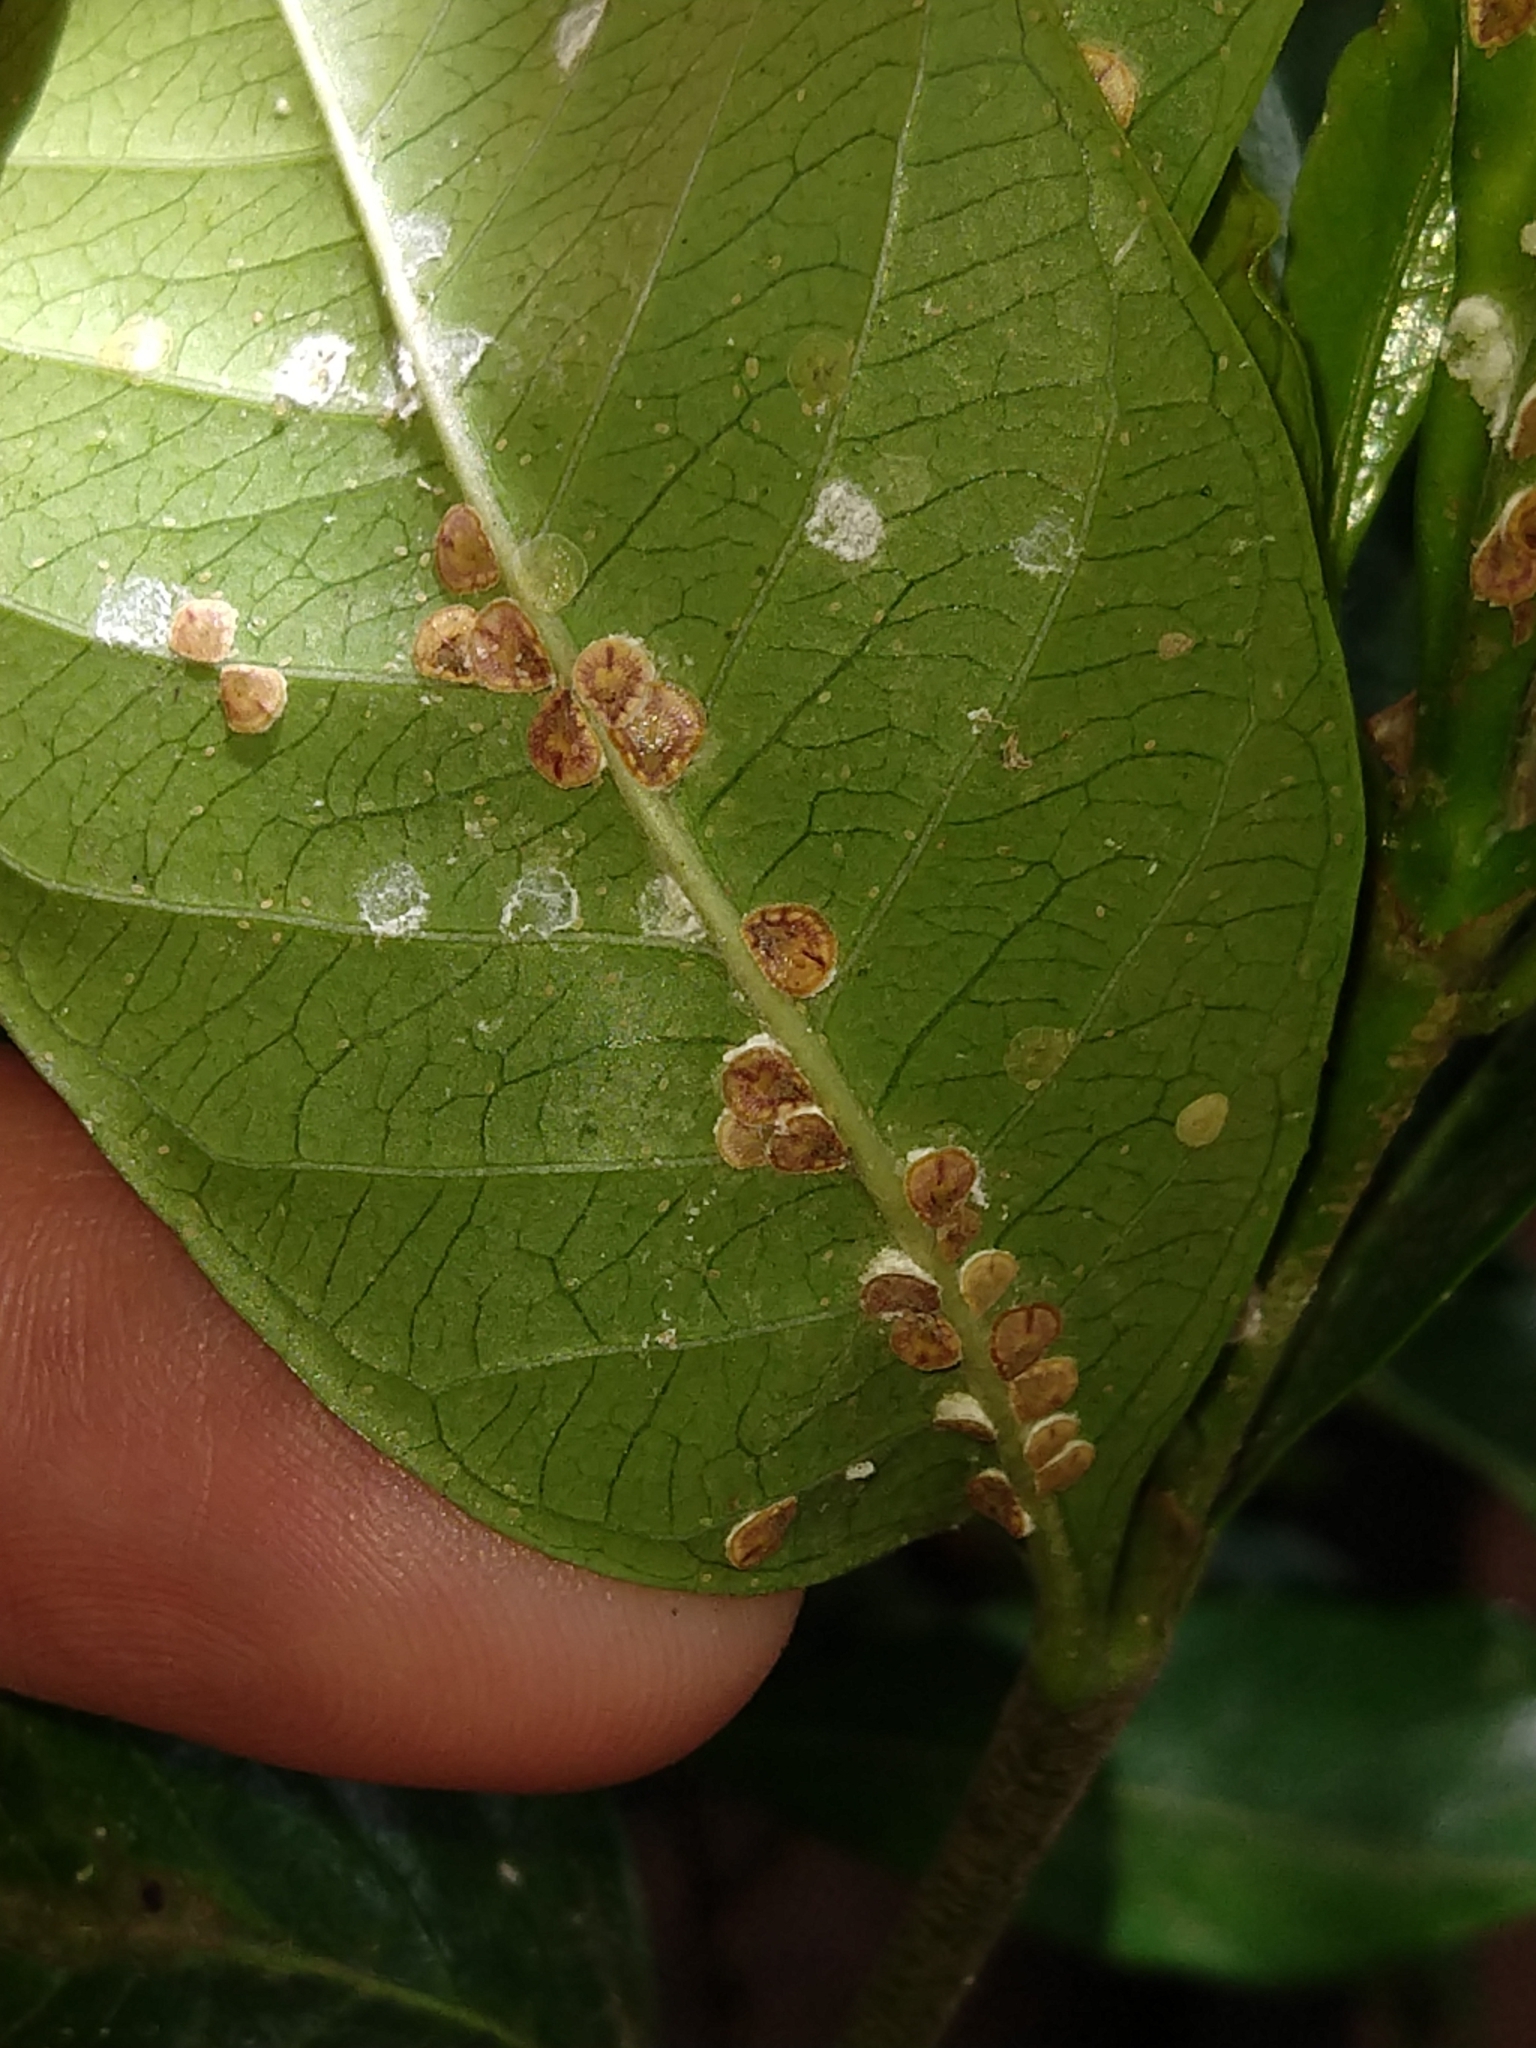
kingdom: Animalia
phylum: Arthropoda
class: Insecta
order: Hemiptera
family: Coccidae
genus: Protopulvinaria
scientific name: Protopulvinaria pyriformis
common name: Pyriform scale
